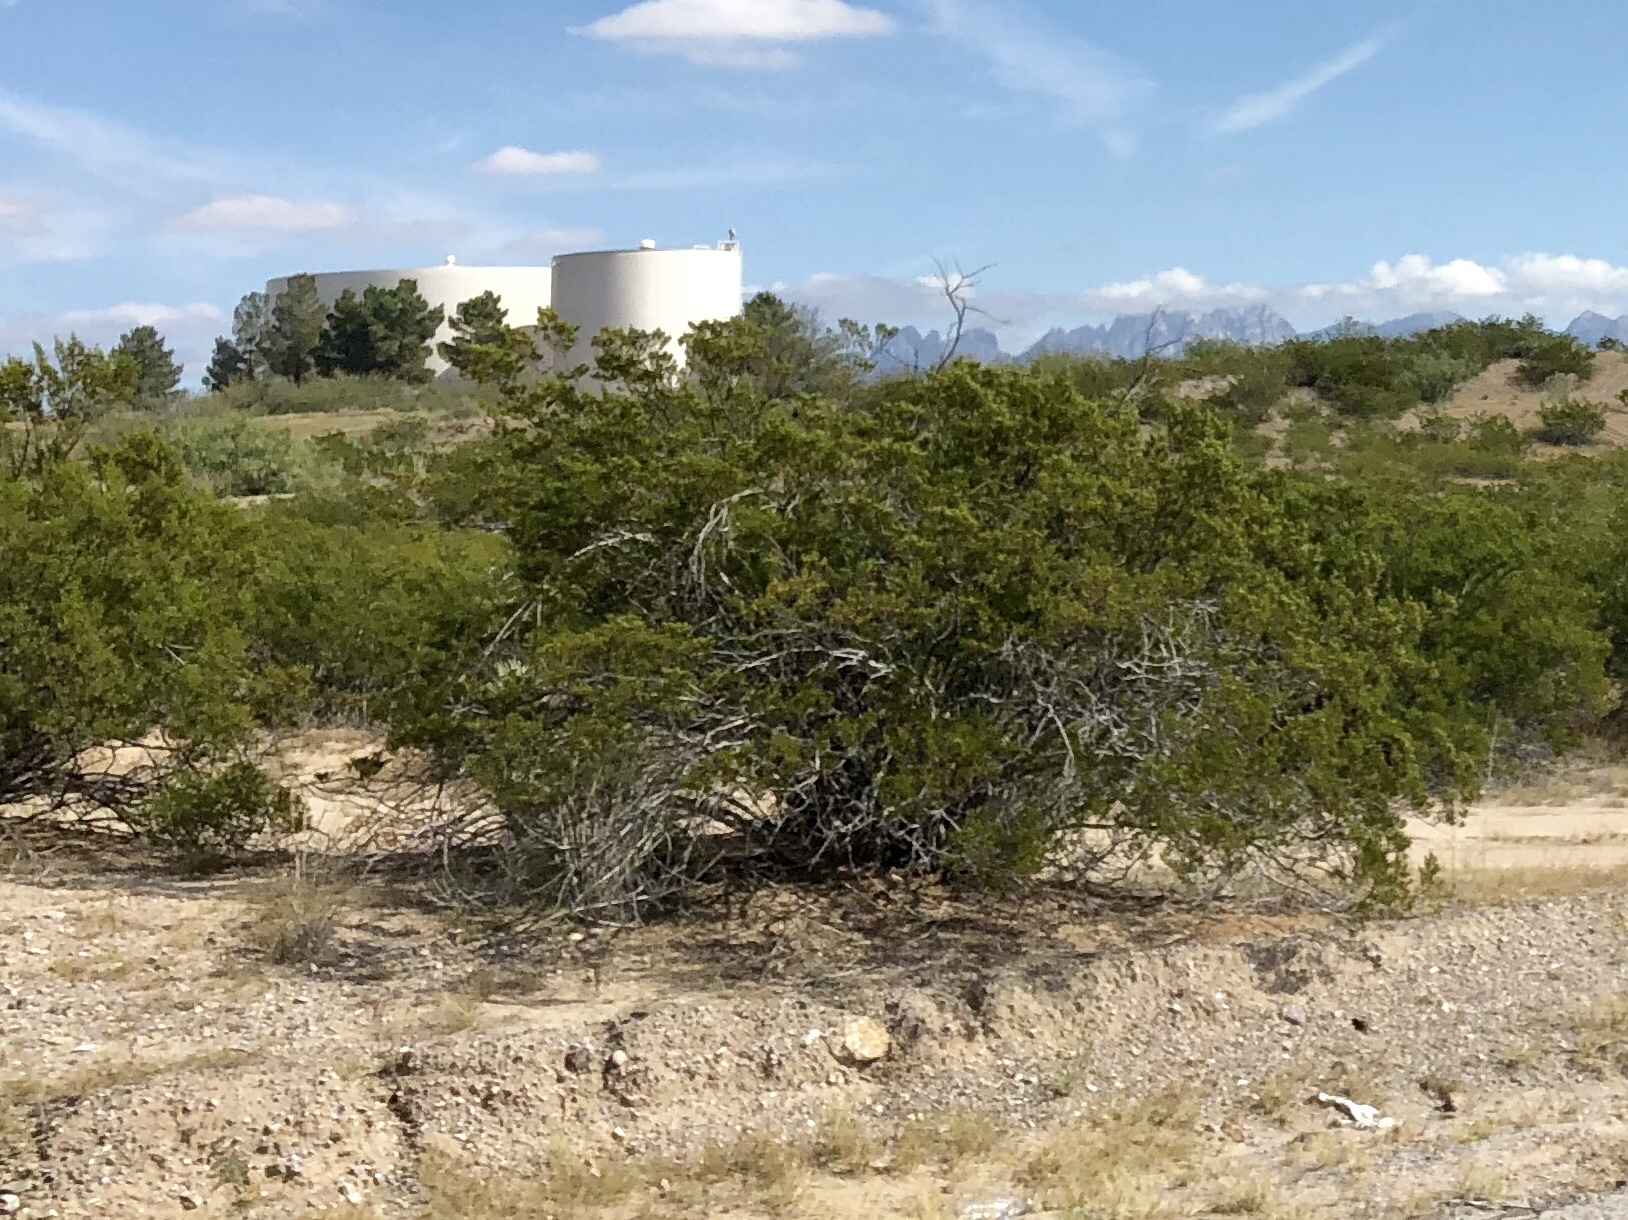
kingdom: Plantae
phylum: Tracheophyta
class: Magnoliopsida
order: Zygophyllales
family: Zygophyllaceae
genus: Larrea
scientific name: Larrea tridentata
